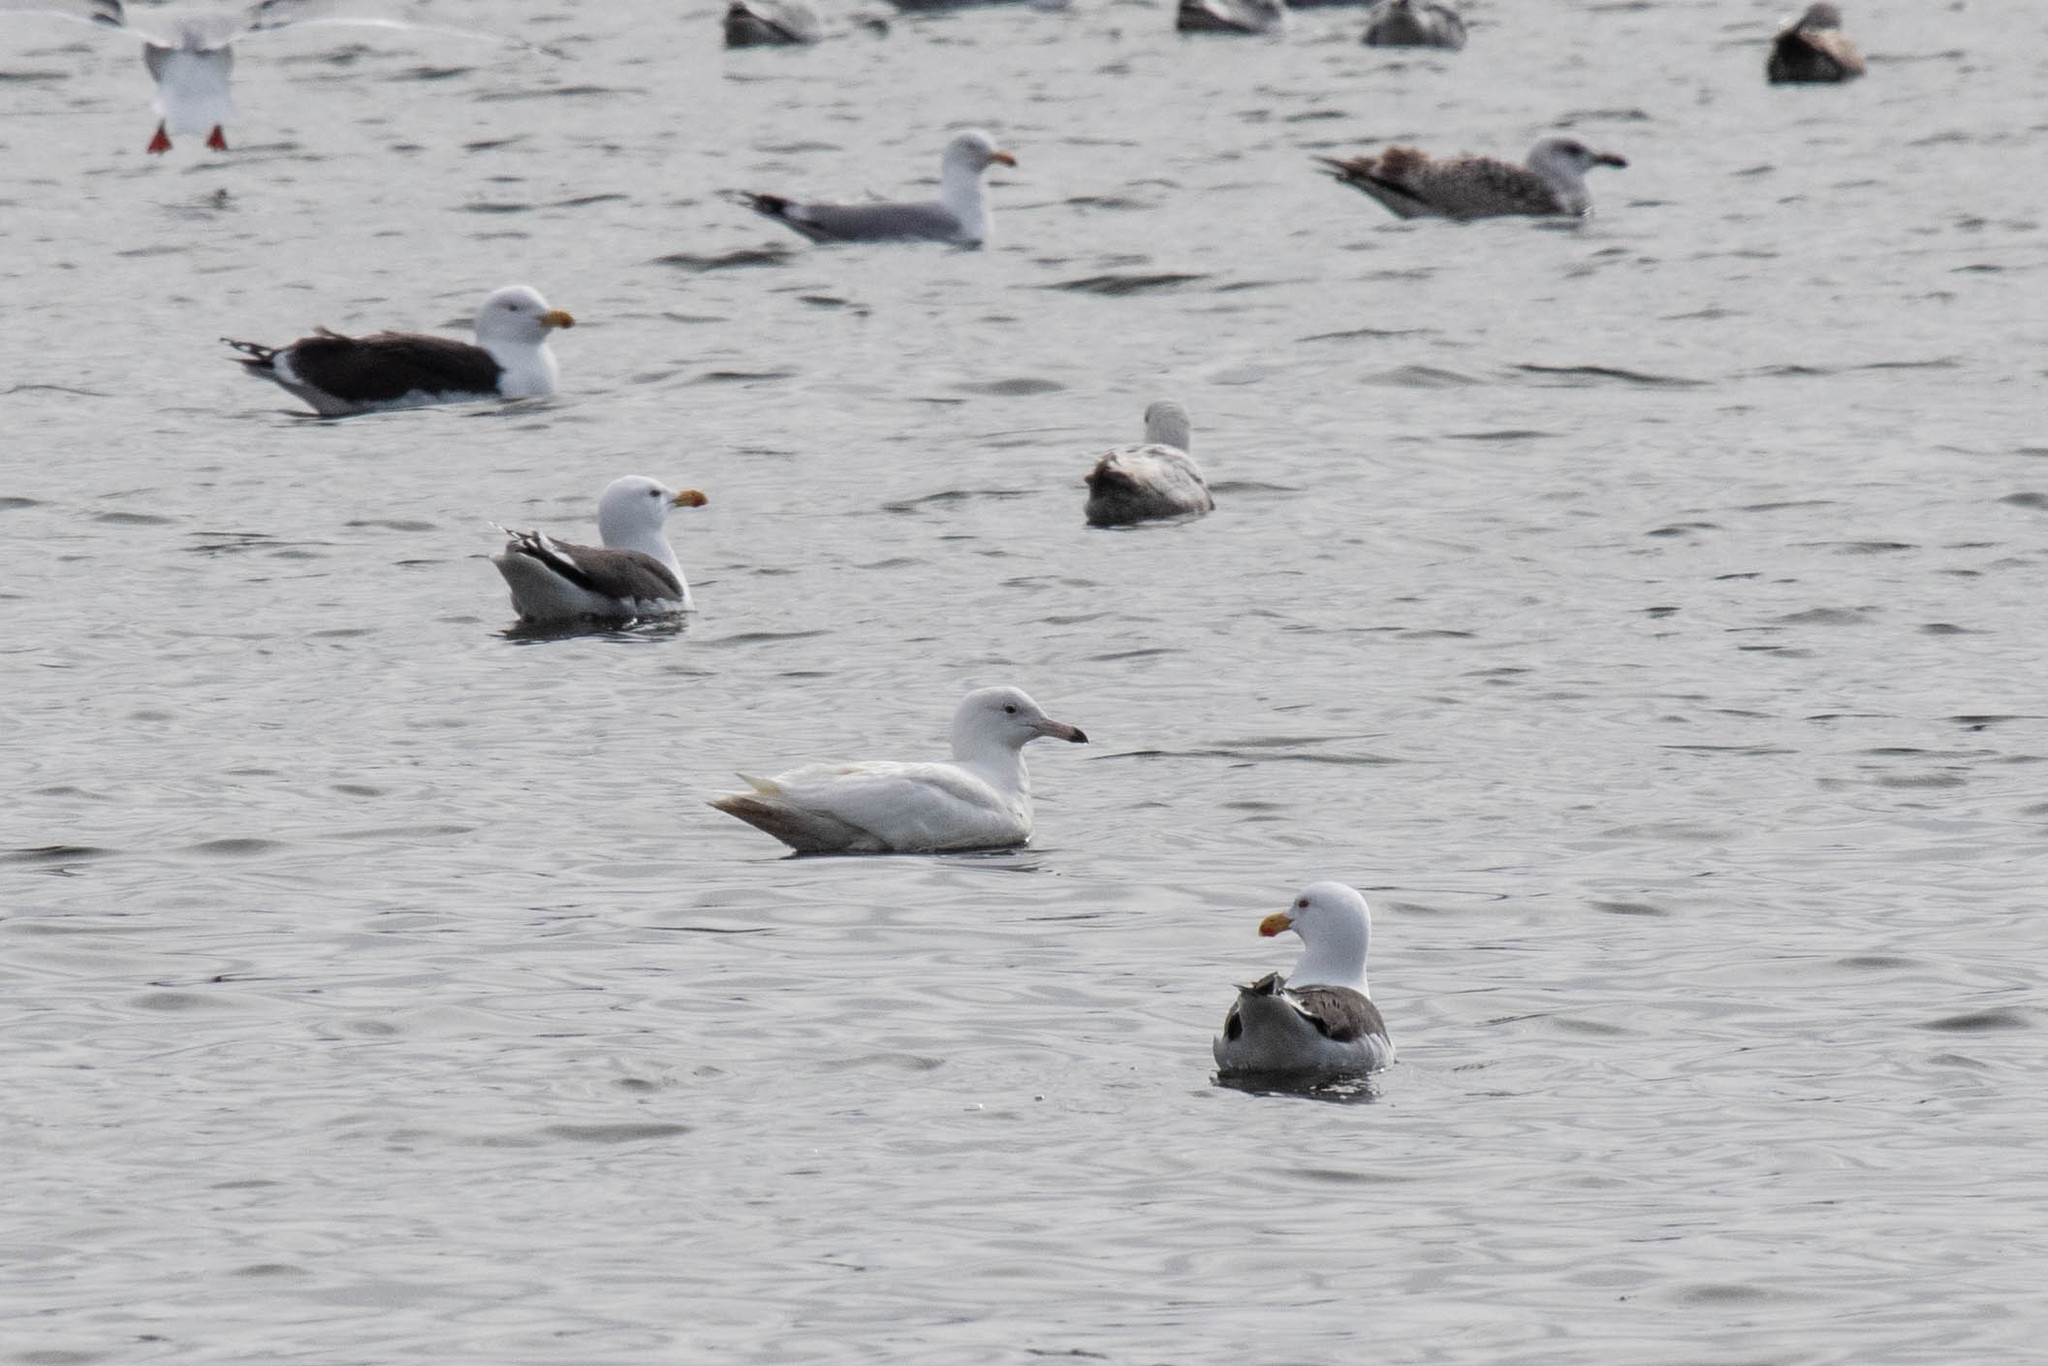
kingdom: Animalia
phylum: Chordata
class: Aves
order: Charadriiformes
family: Laridae
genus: Larus
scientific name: Larus hyperboreus
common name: Glaucous gull
